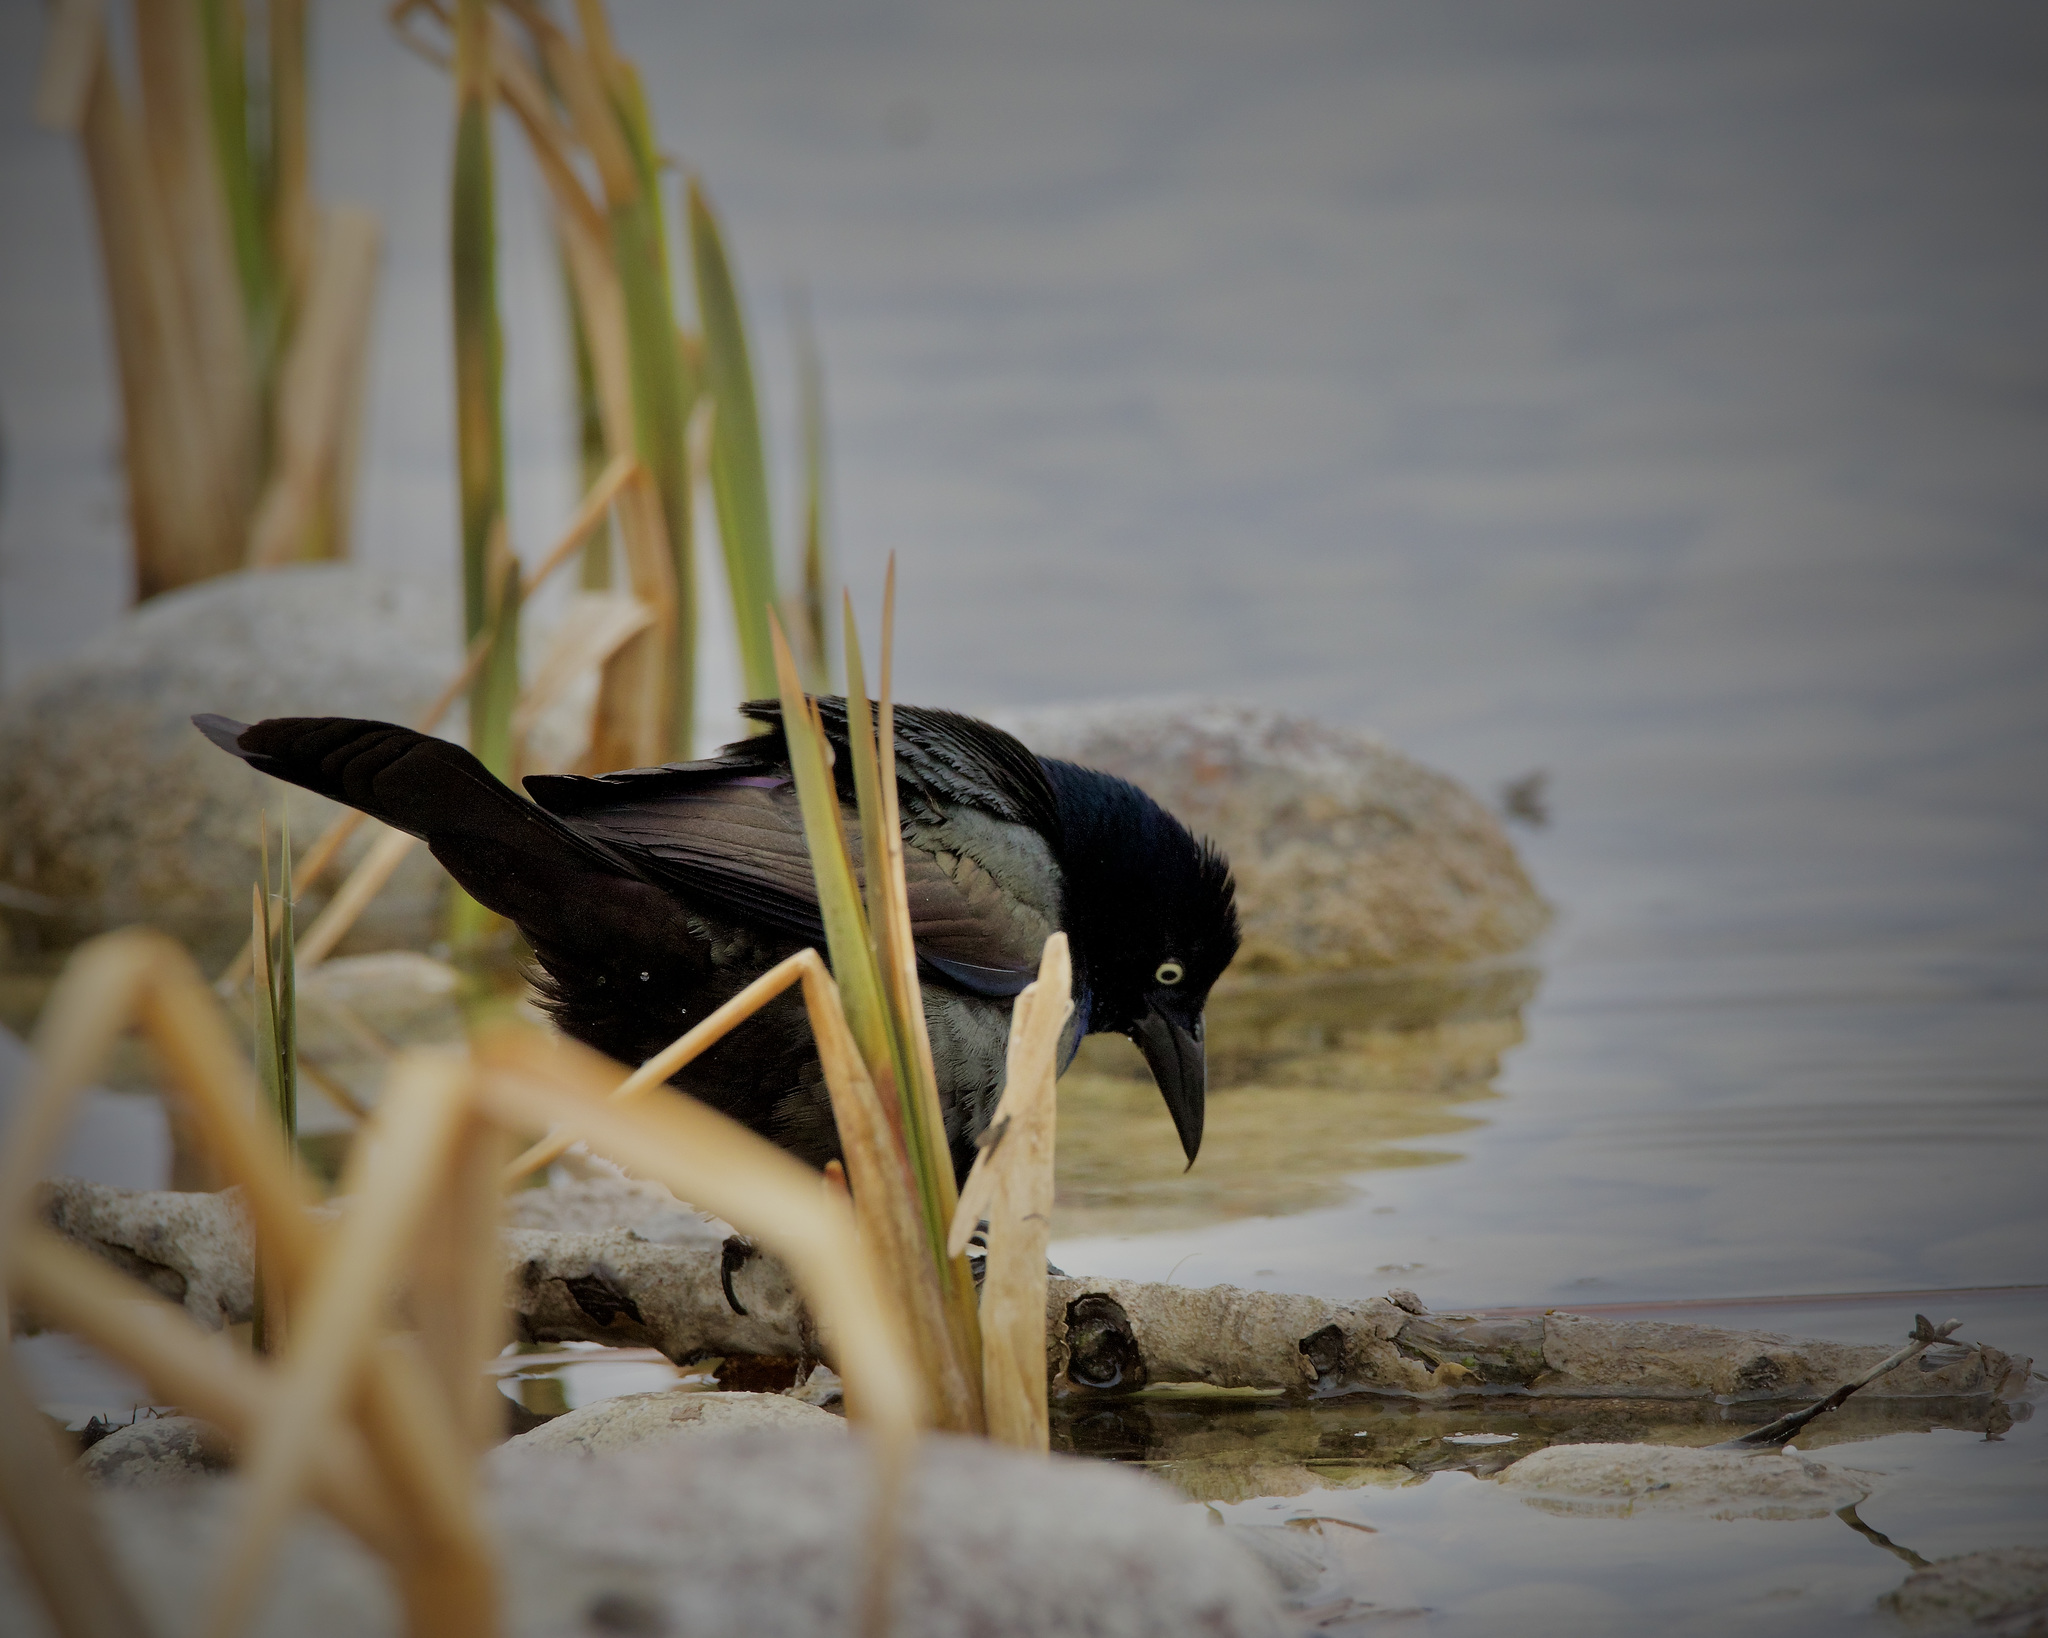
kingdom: Animalia
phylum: Chordata
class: Aves
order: Passeriformes
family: Icteridae
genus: Quiscalus
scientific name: Quiscalus quiscula
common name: Common grackle
